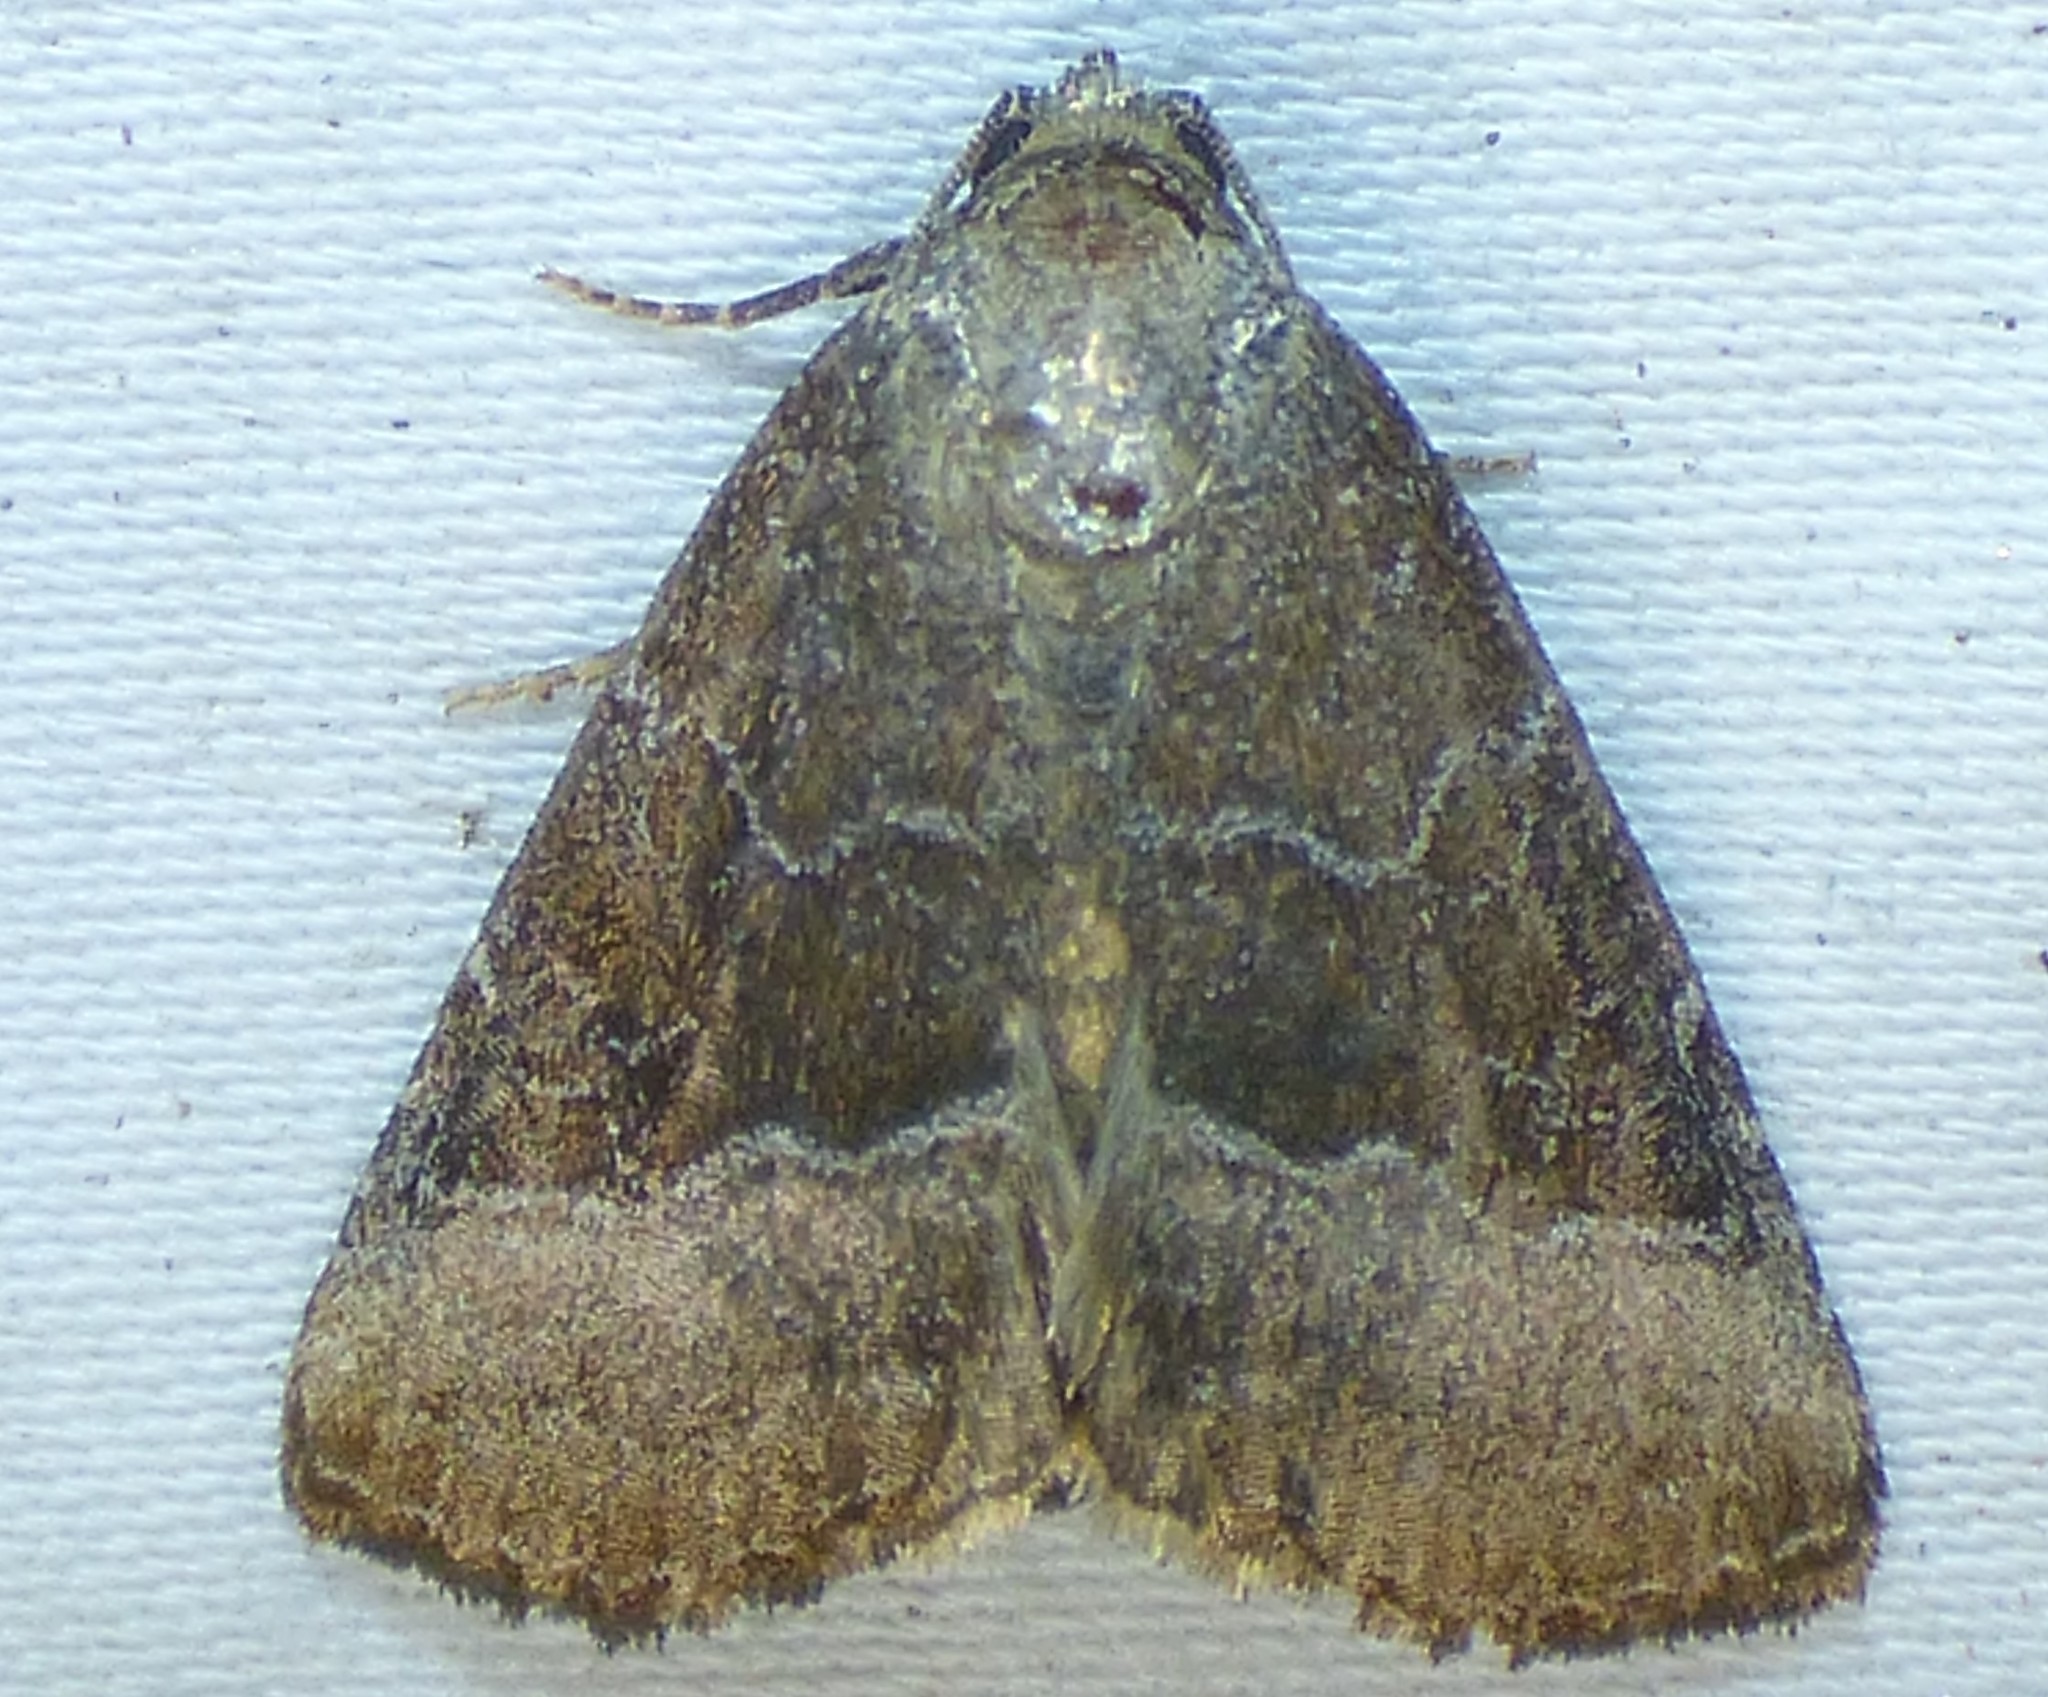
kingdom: Animalia
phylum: Arthropoda
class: Insecta
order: Lepidoptera
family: Noctuidae
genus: Ogdoconta
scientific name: Ogdoconta cinereola
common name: Common pinkband
